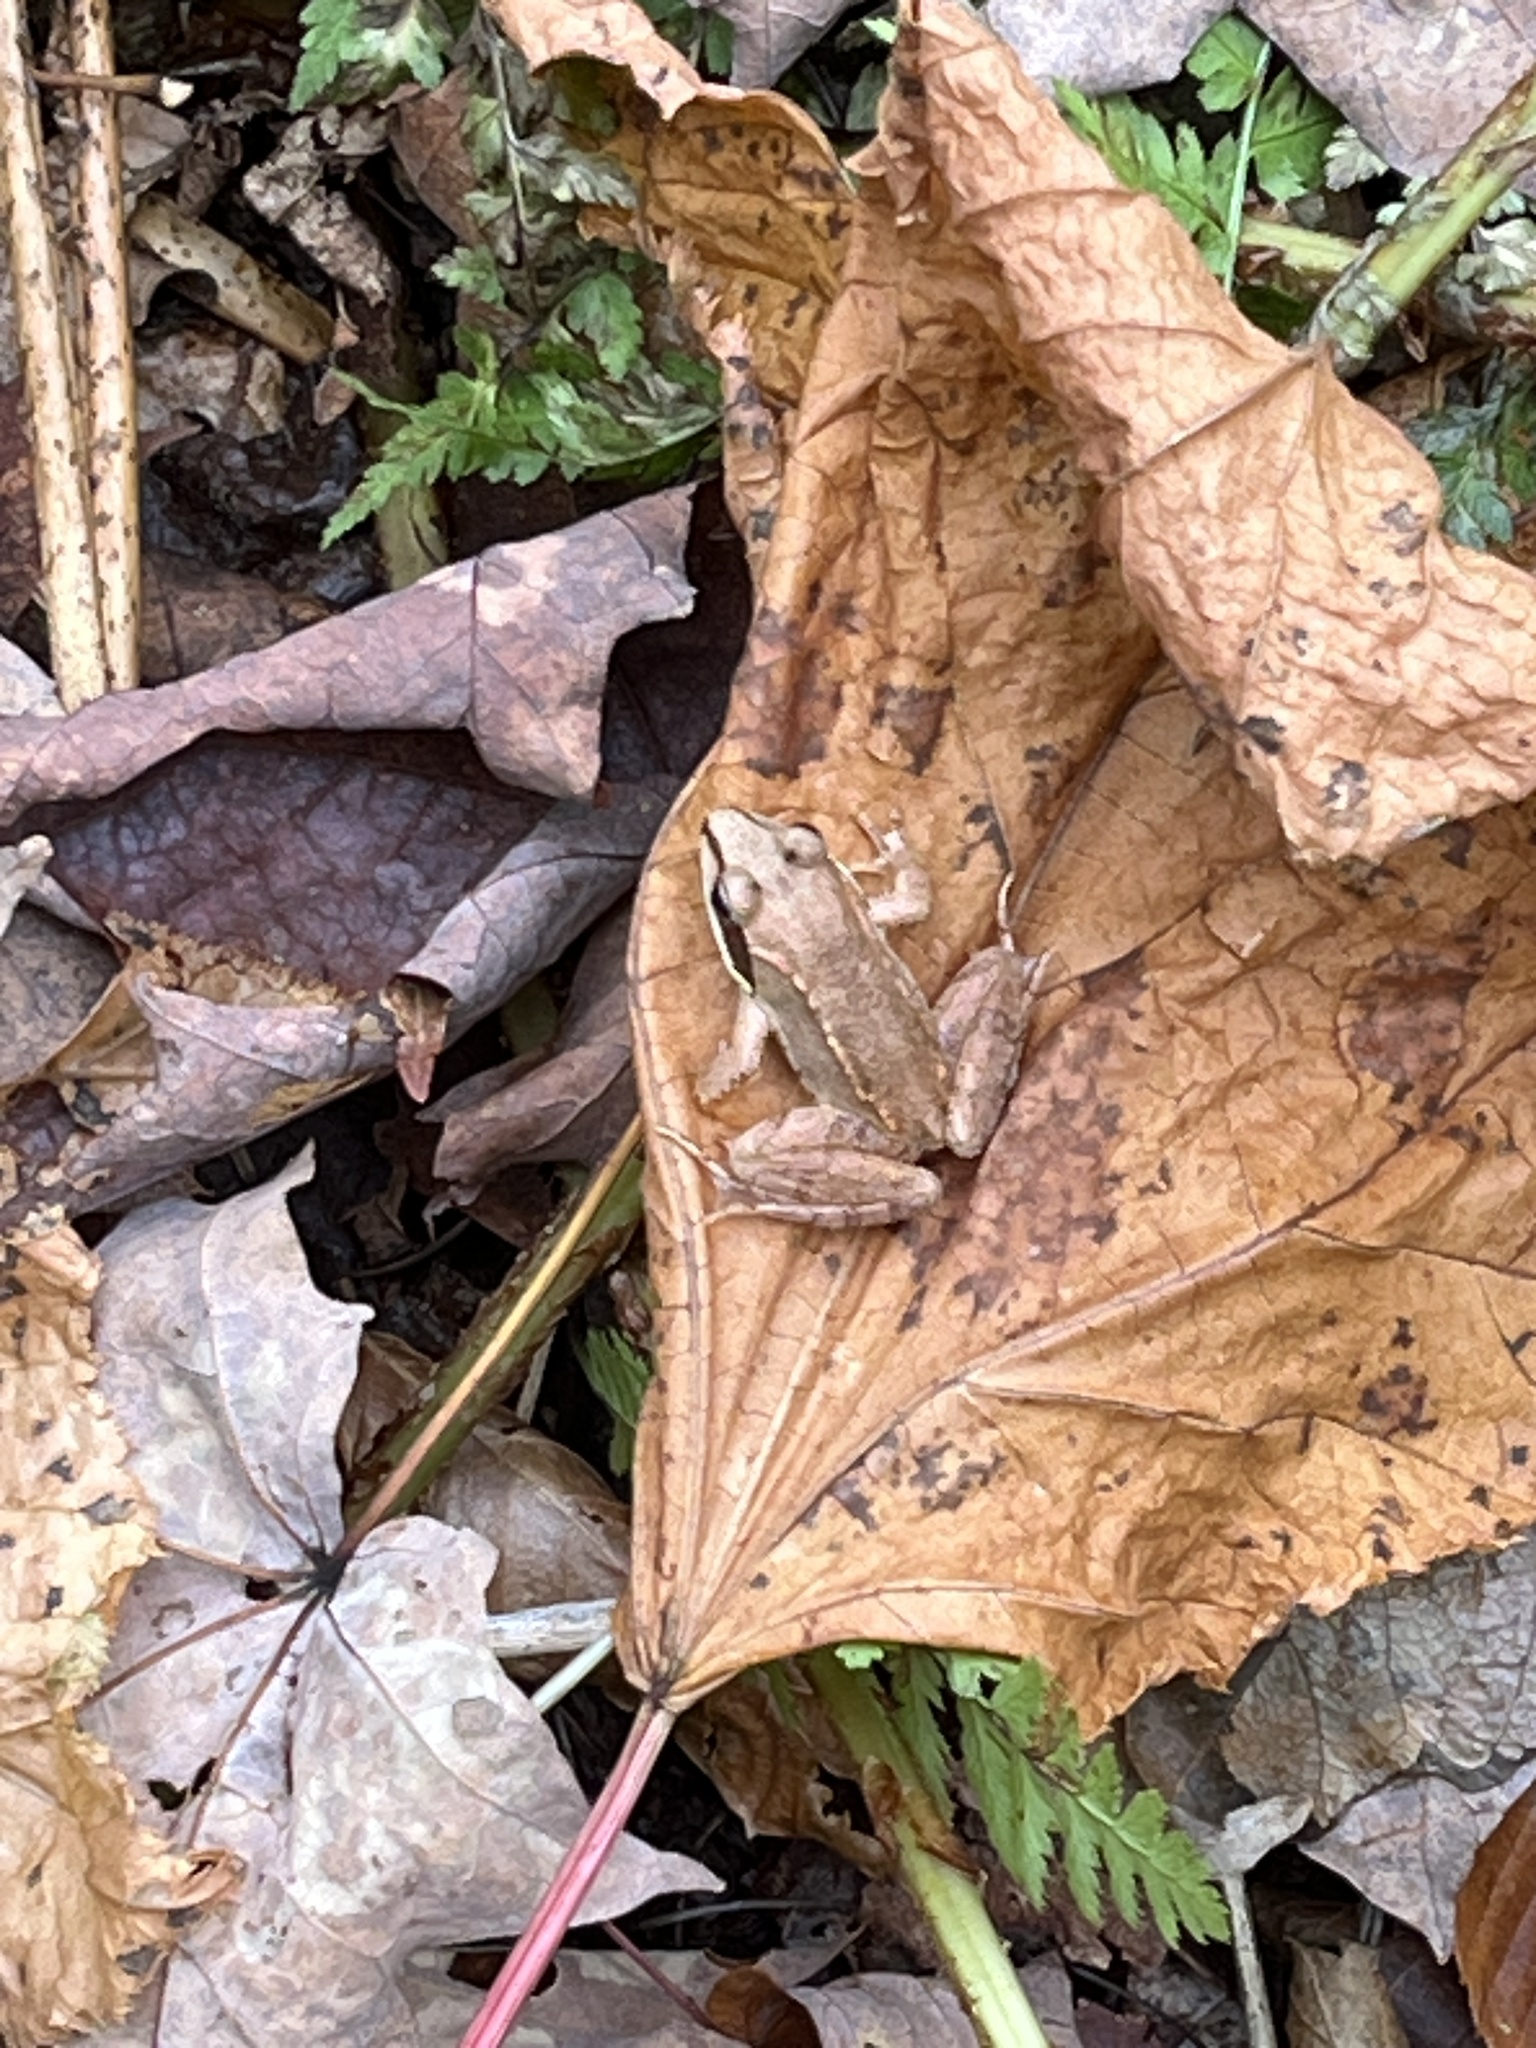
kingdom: Animalia
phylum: Chordata
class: Amphibia
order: Anura
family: Ranidae
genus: Lithobates
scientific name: Lithobates sylvaticus
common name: Wood frog
